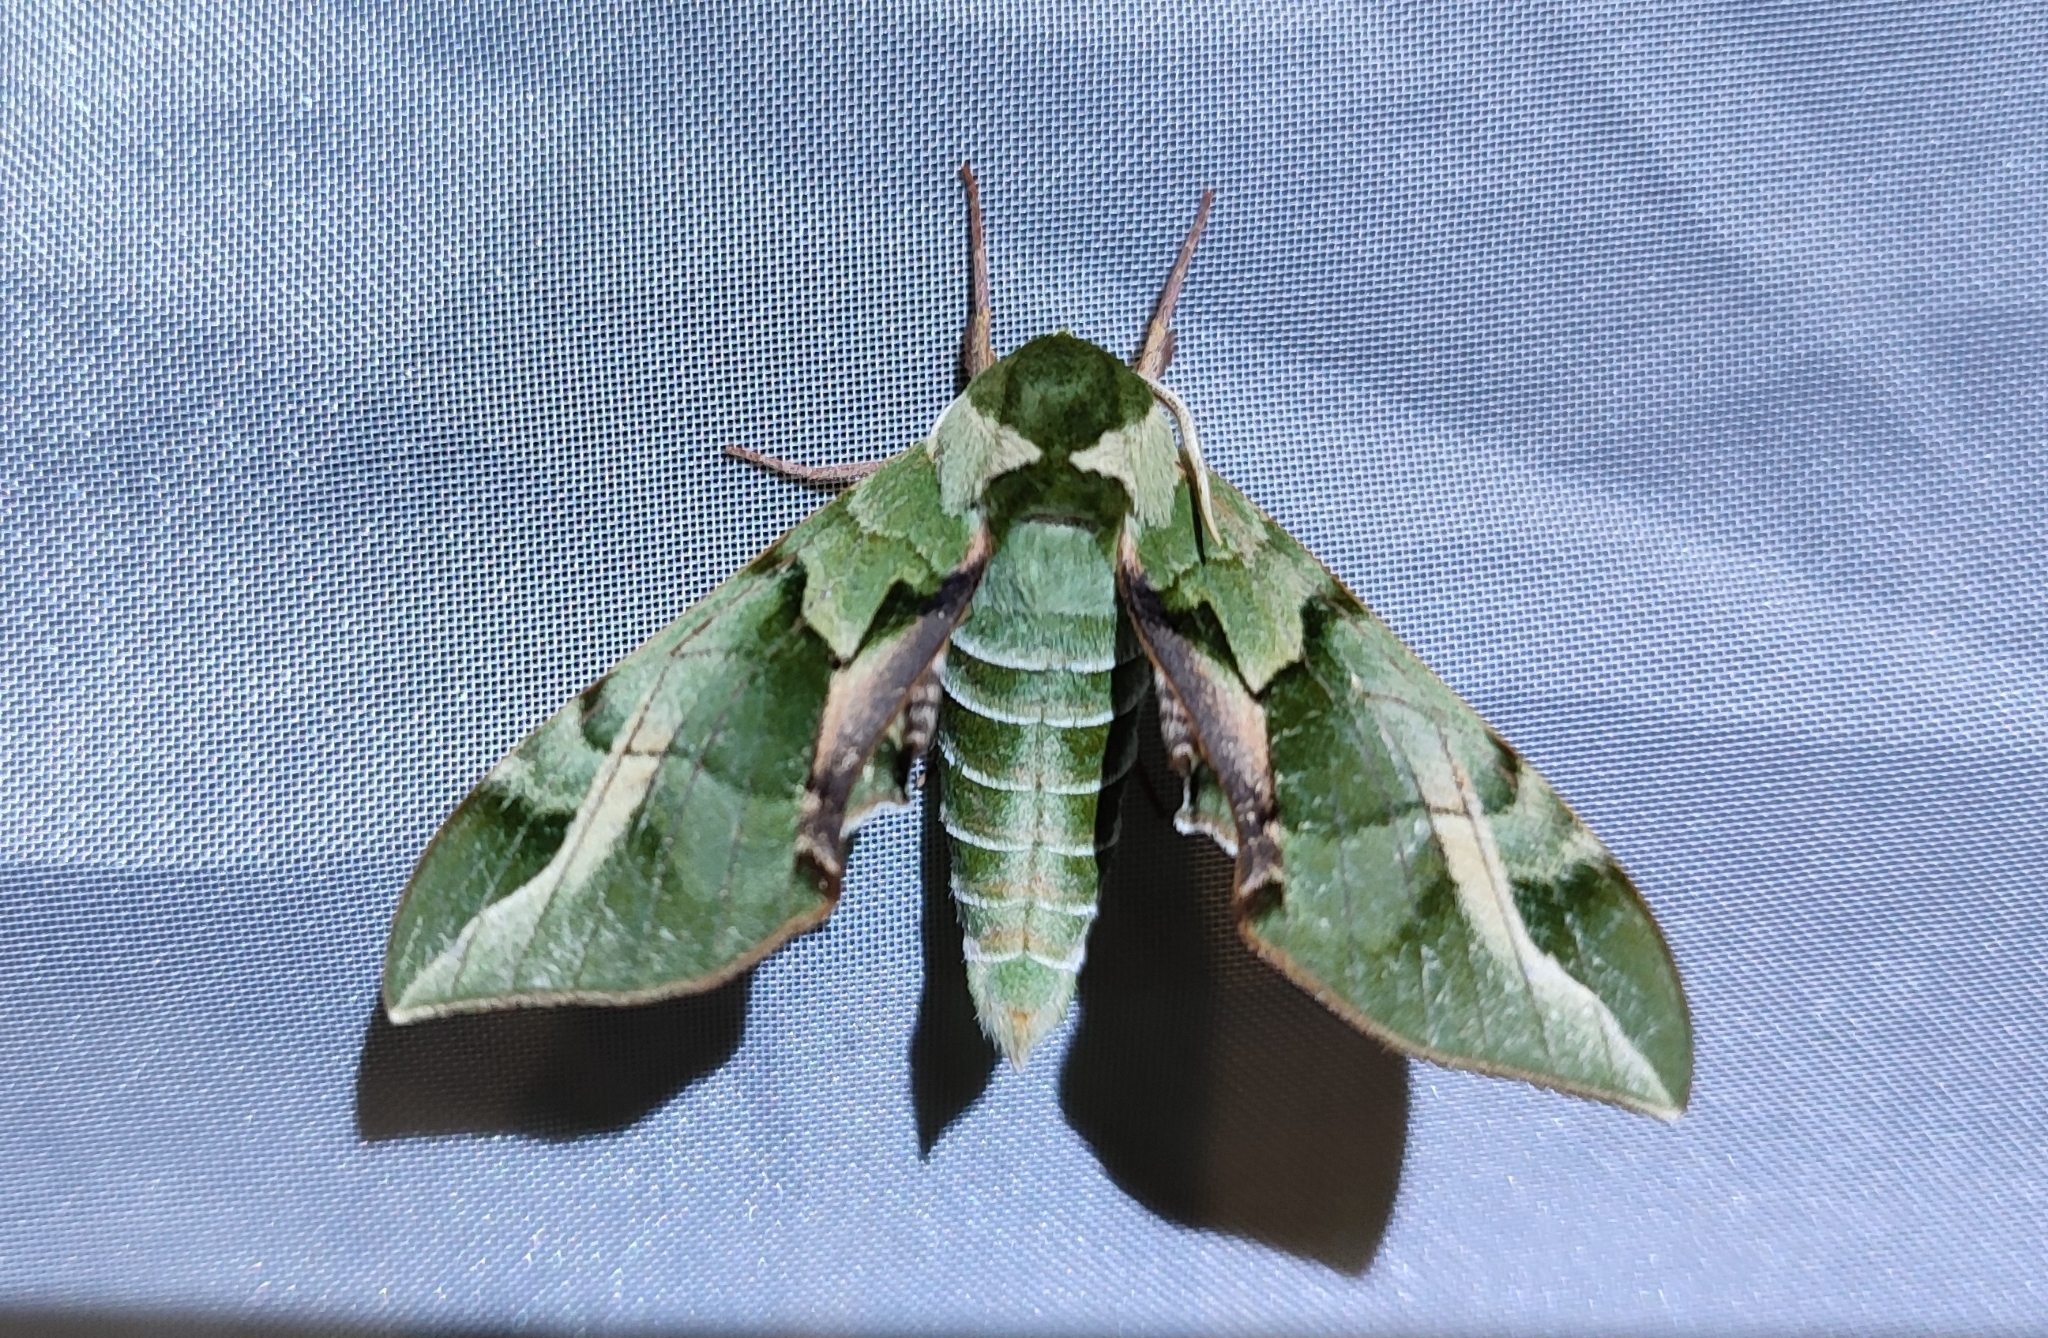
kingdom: Animalia
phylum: Arthropoda
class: Insecta
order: Lepidoptera
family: Sphingidae
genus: Callambulyx
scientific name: Callambulyx tatarinovii
